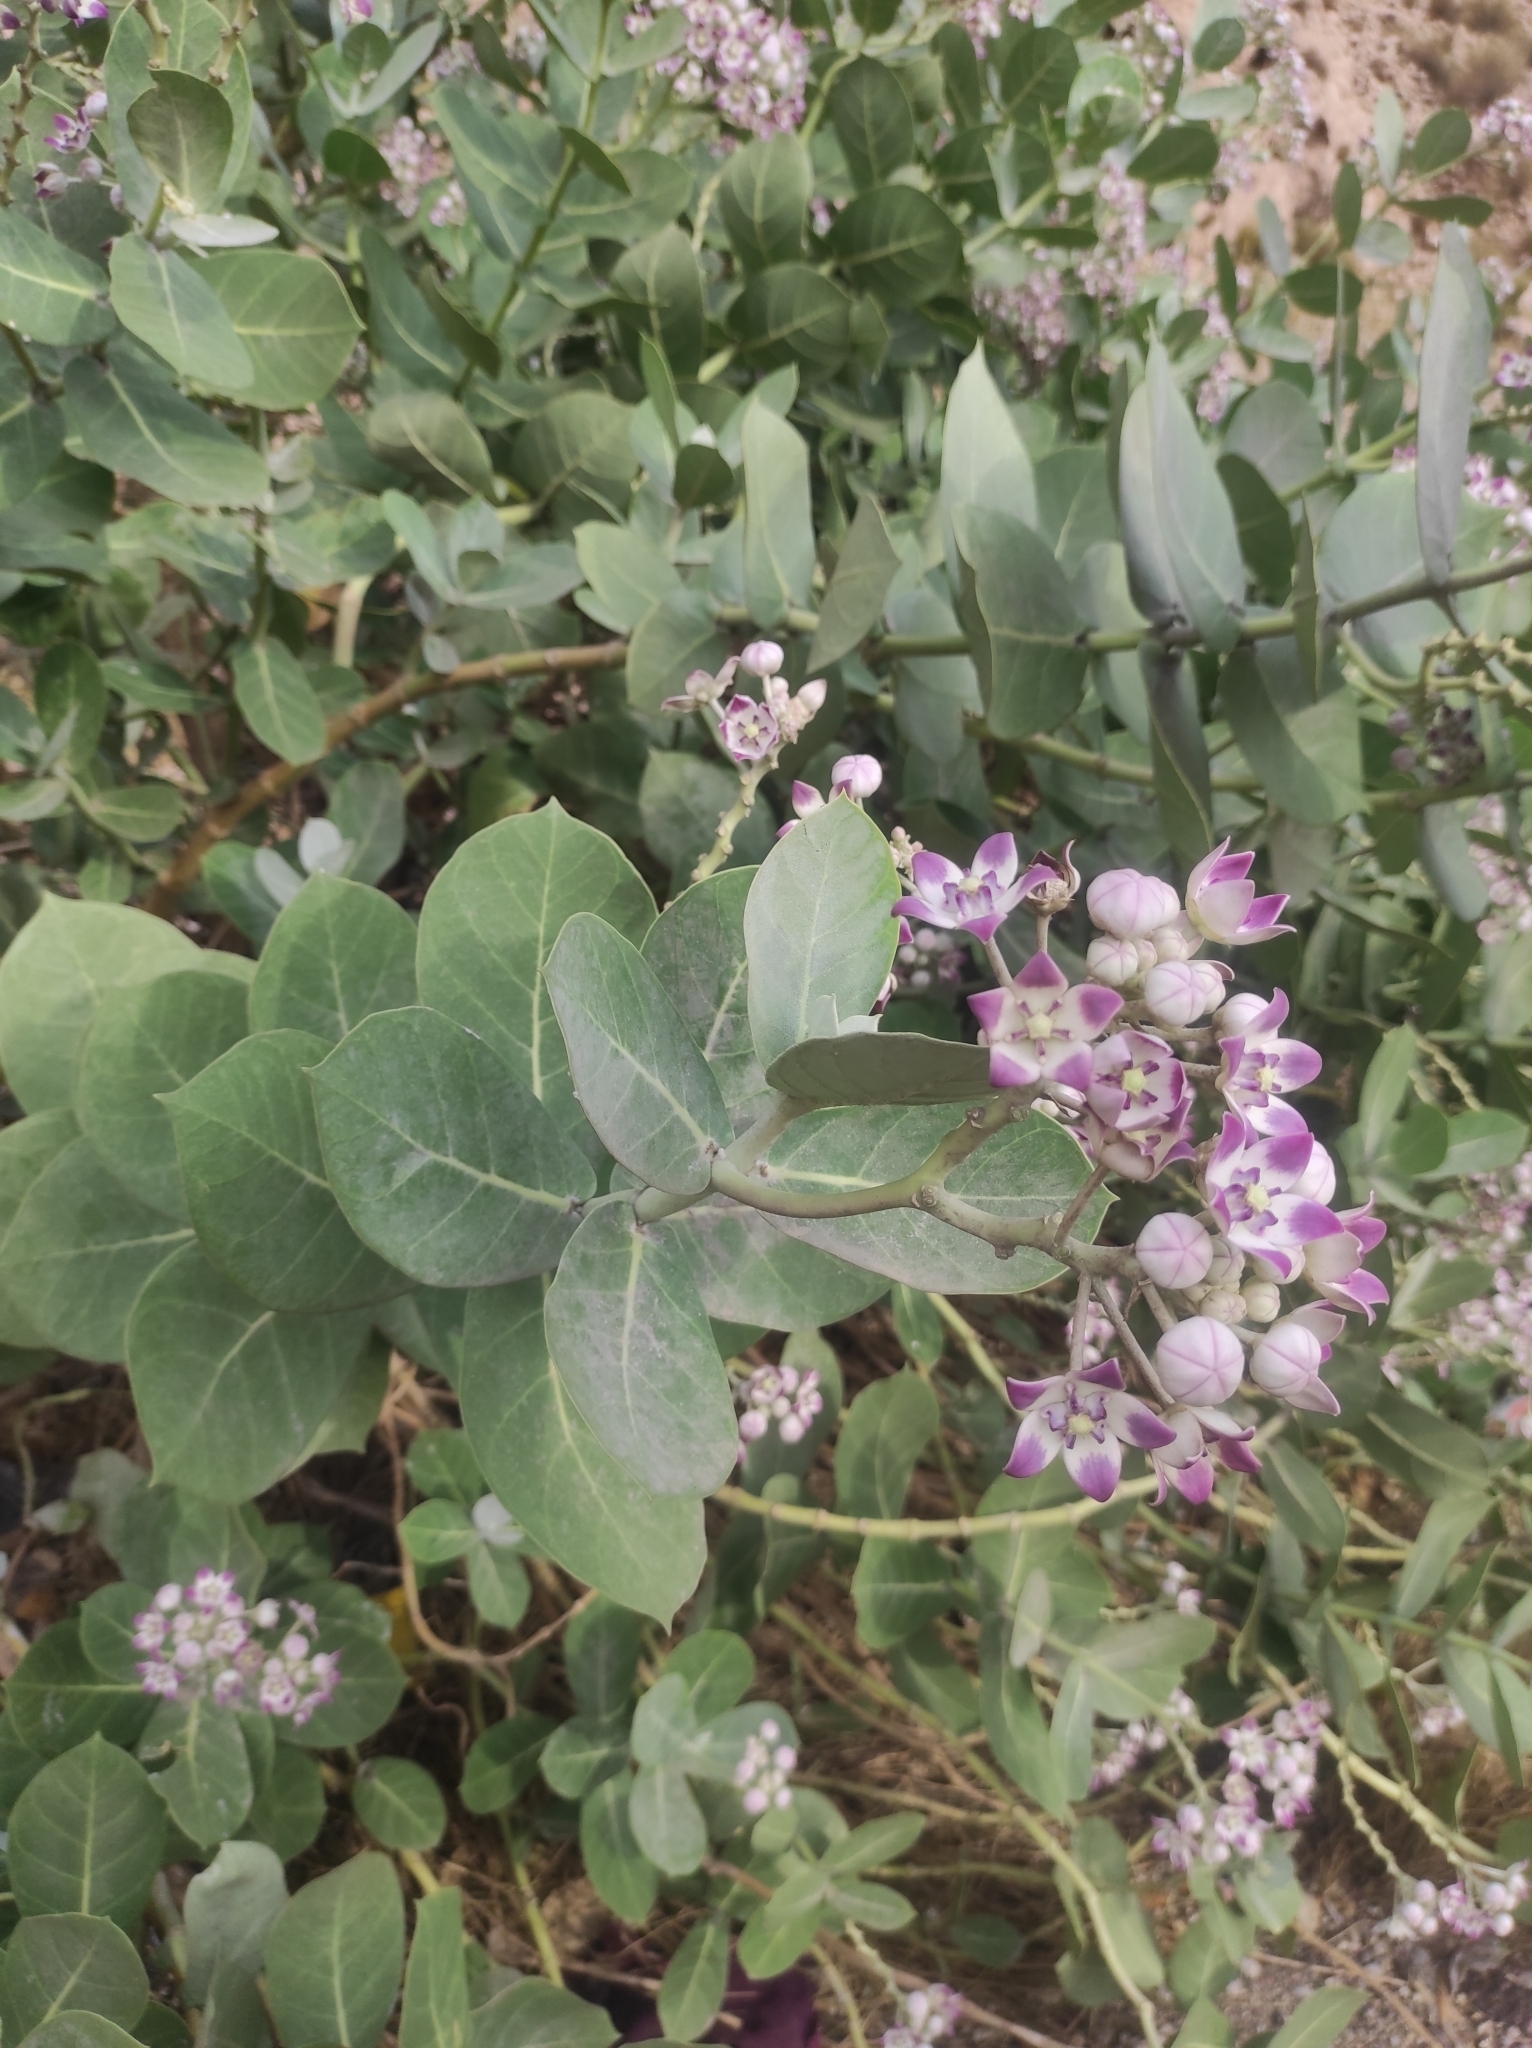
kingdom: Plantae
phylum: Tracheophyta
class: Magnoliopsida
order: Gentianales
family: Apocynaceae
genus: Calotropis
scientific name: Calotropis procera
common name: Roostertree
